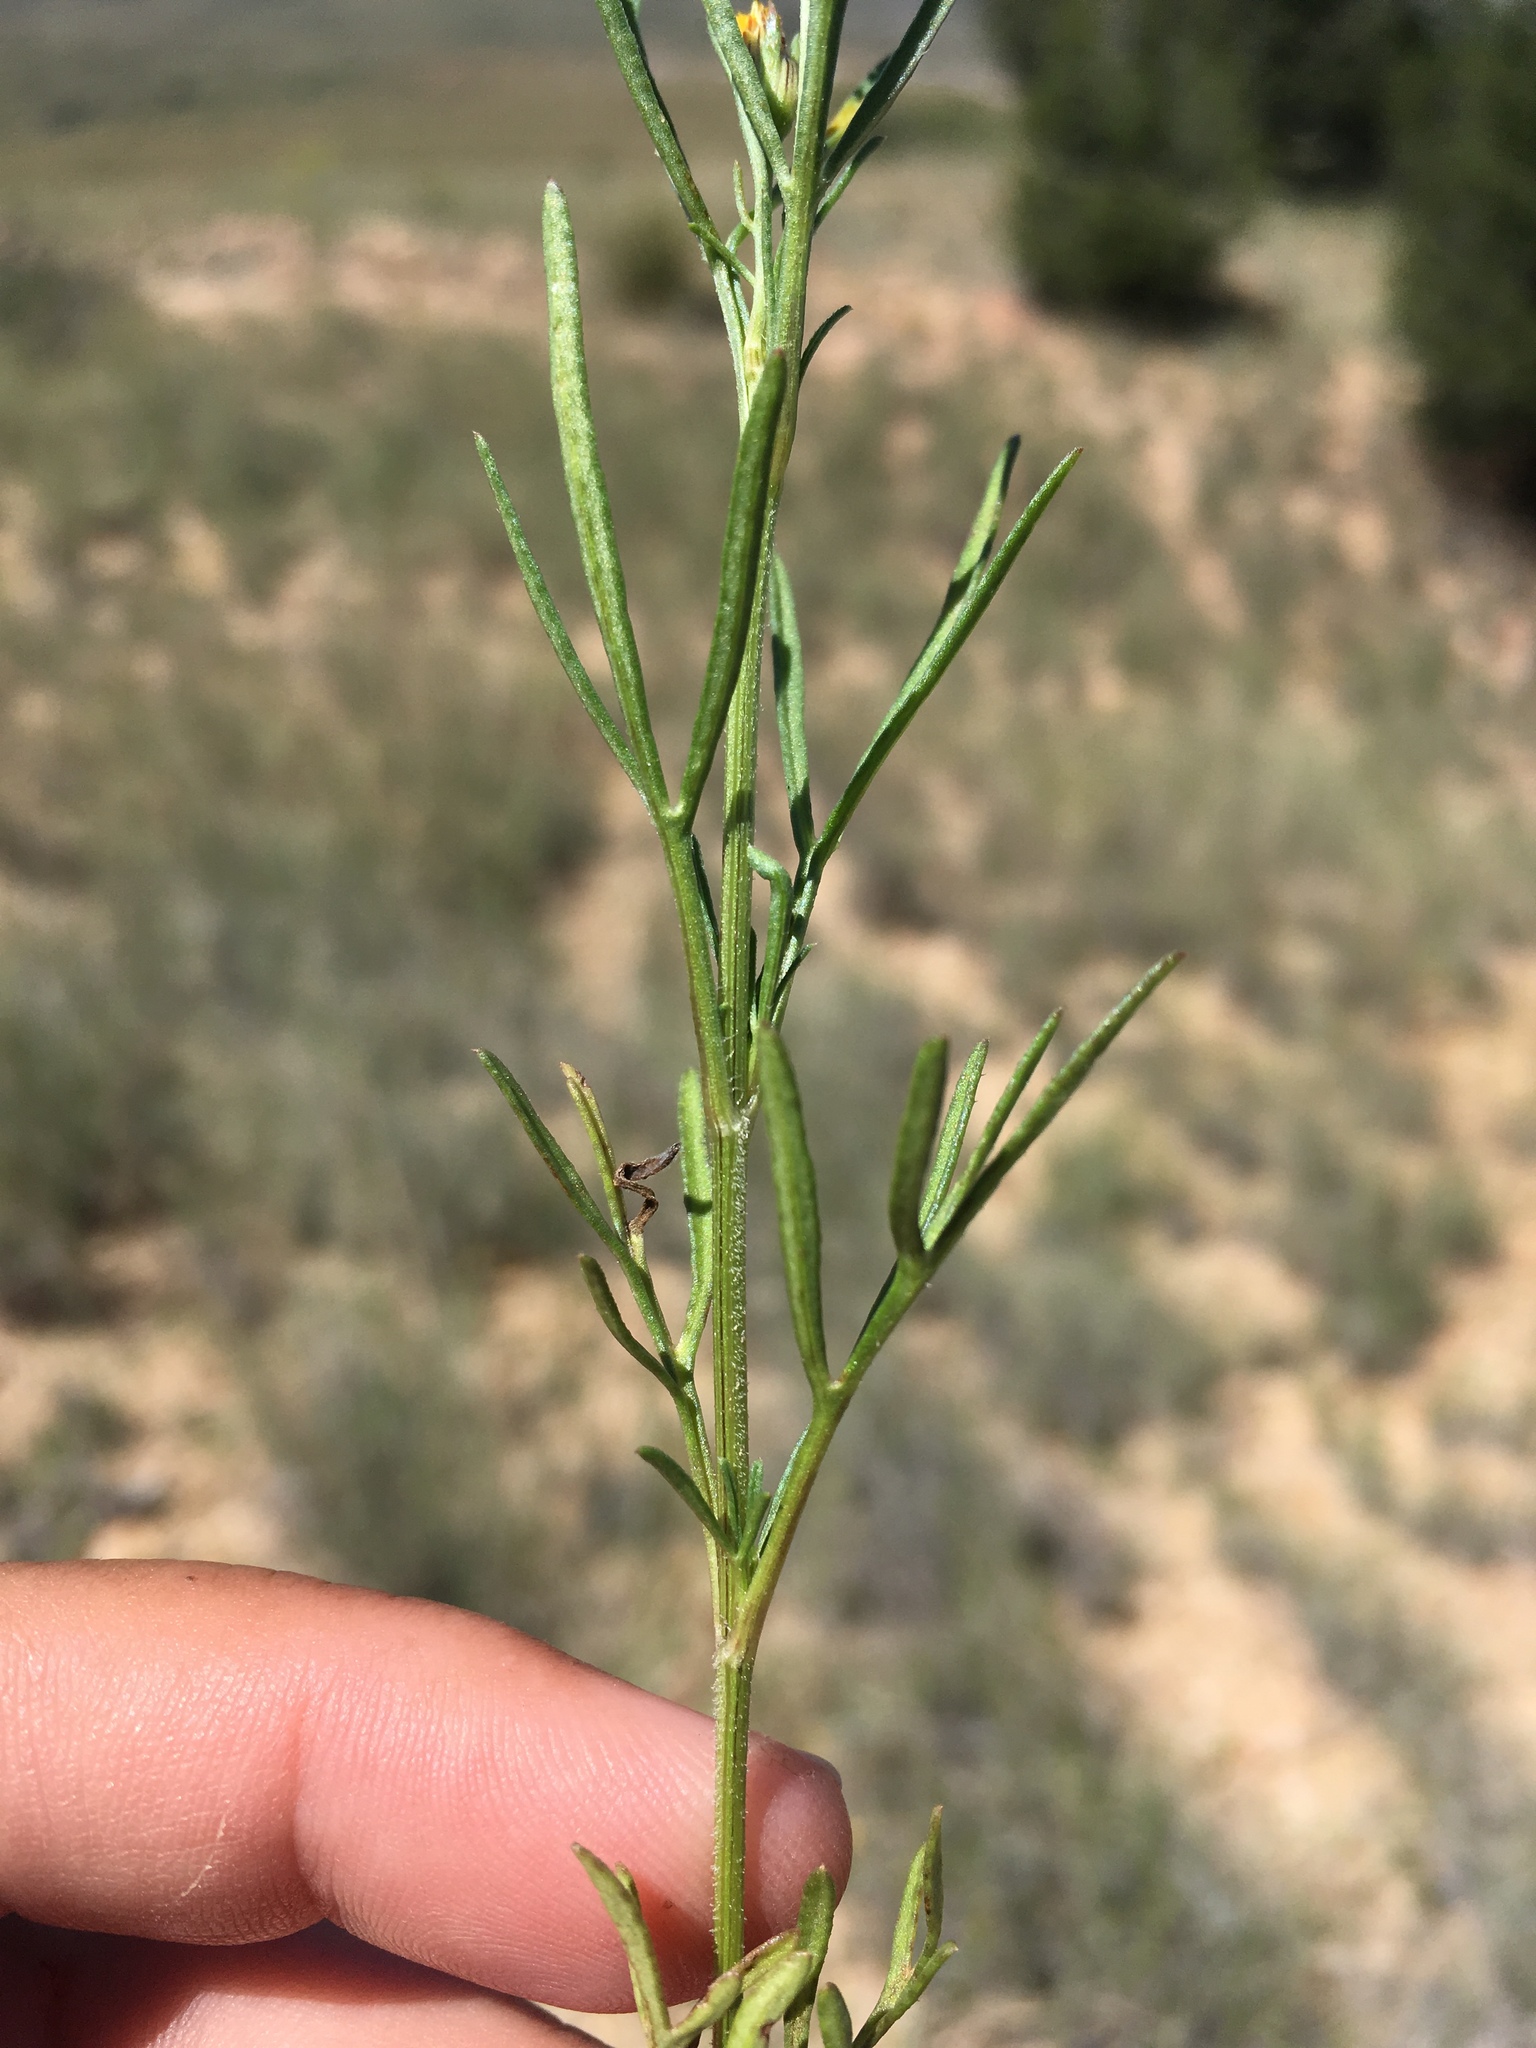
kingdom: Plantae
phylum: Tracheophyta
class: Magnoliopsida
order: Asterales
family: Asteraceae
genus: Heterosperma
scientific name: Heterosperma pinnatum
